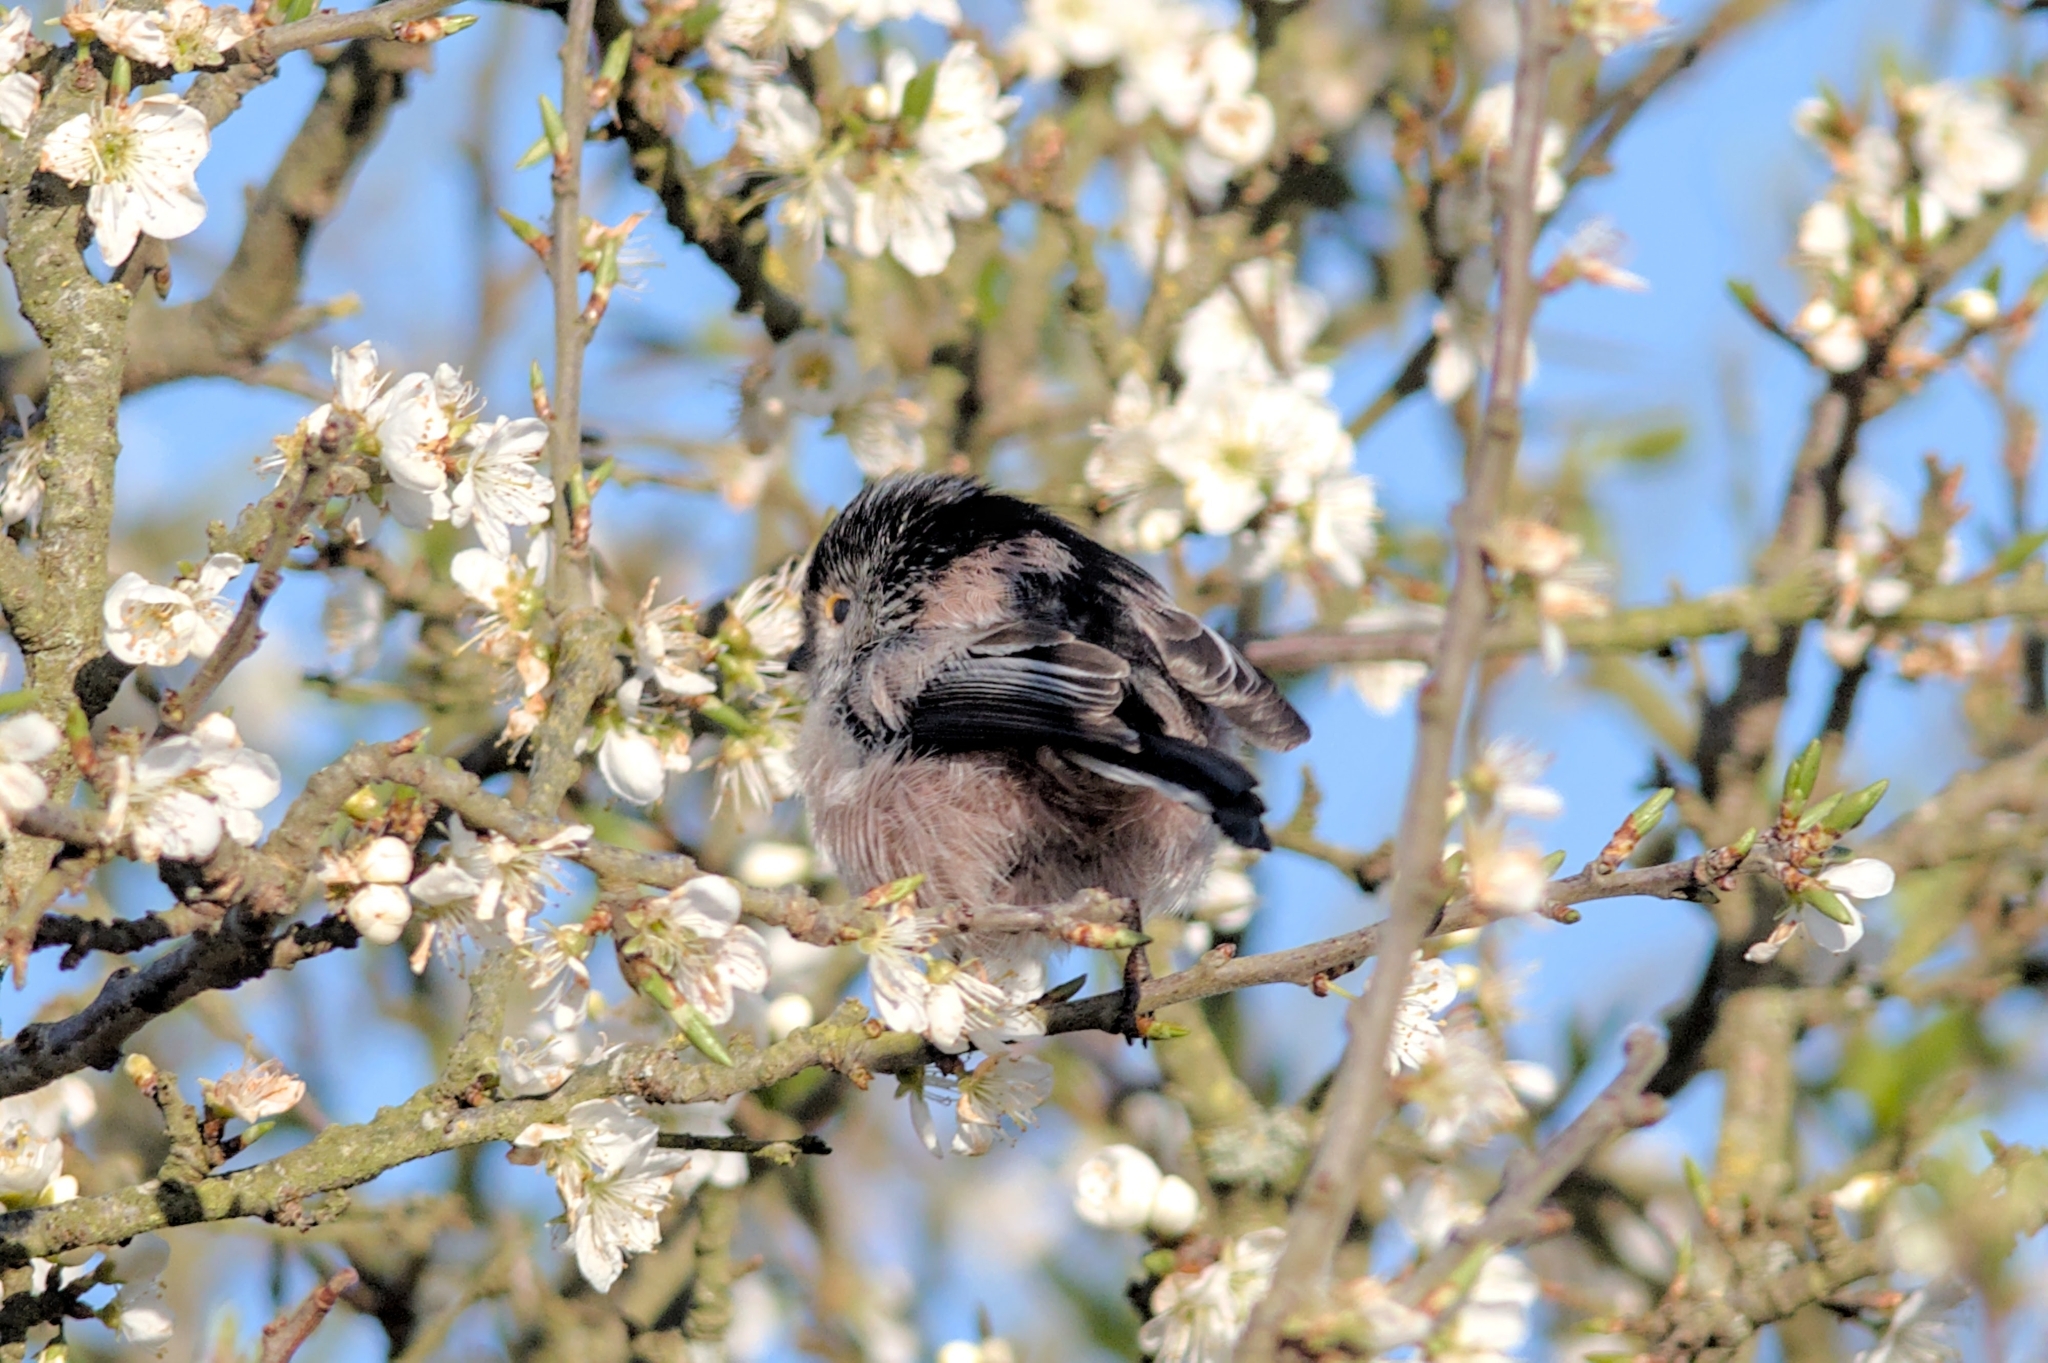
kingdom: Animalia
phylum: Chordata
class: Aves
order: Passeriformes
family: Aegithalidae
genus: Aegithalos
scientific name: Aegithalos caudatus
